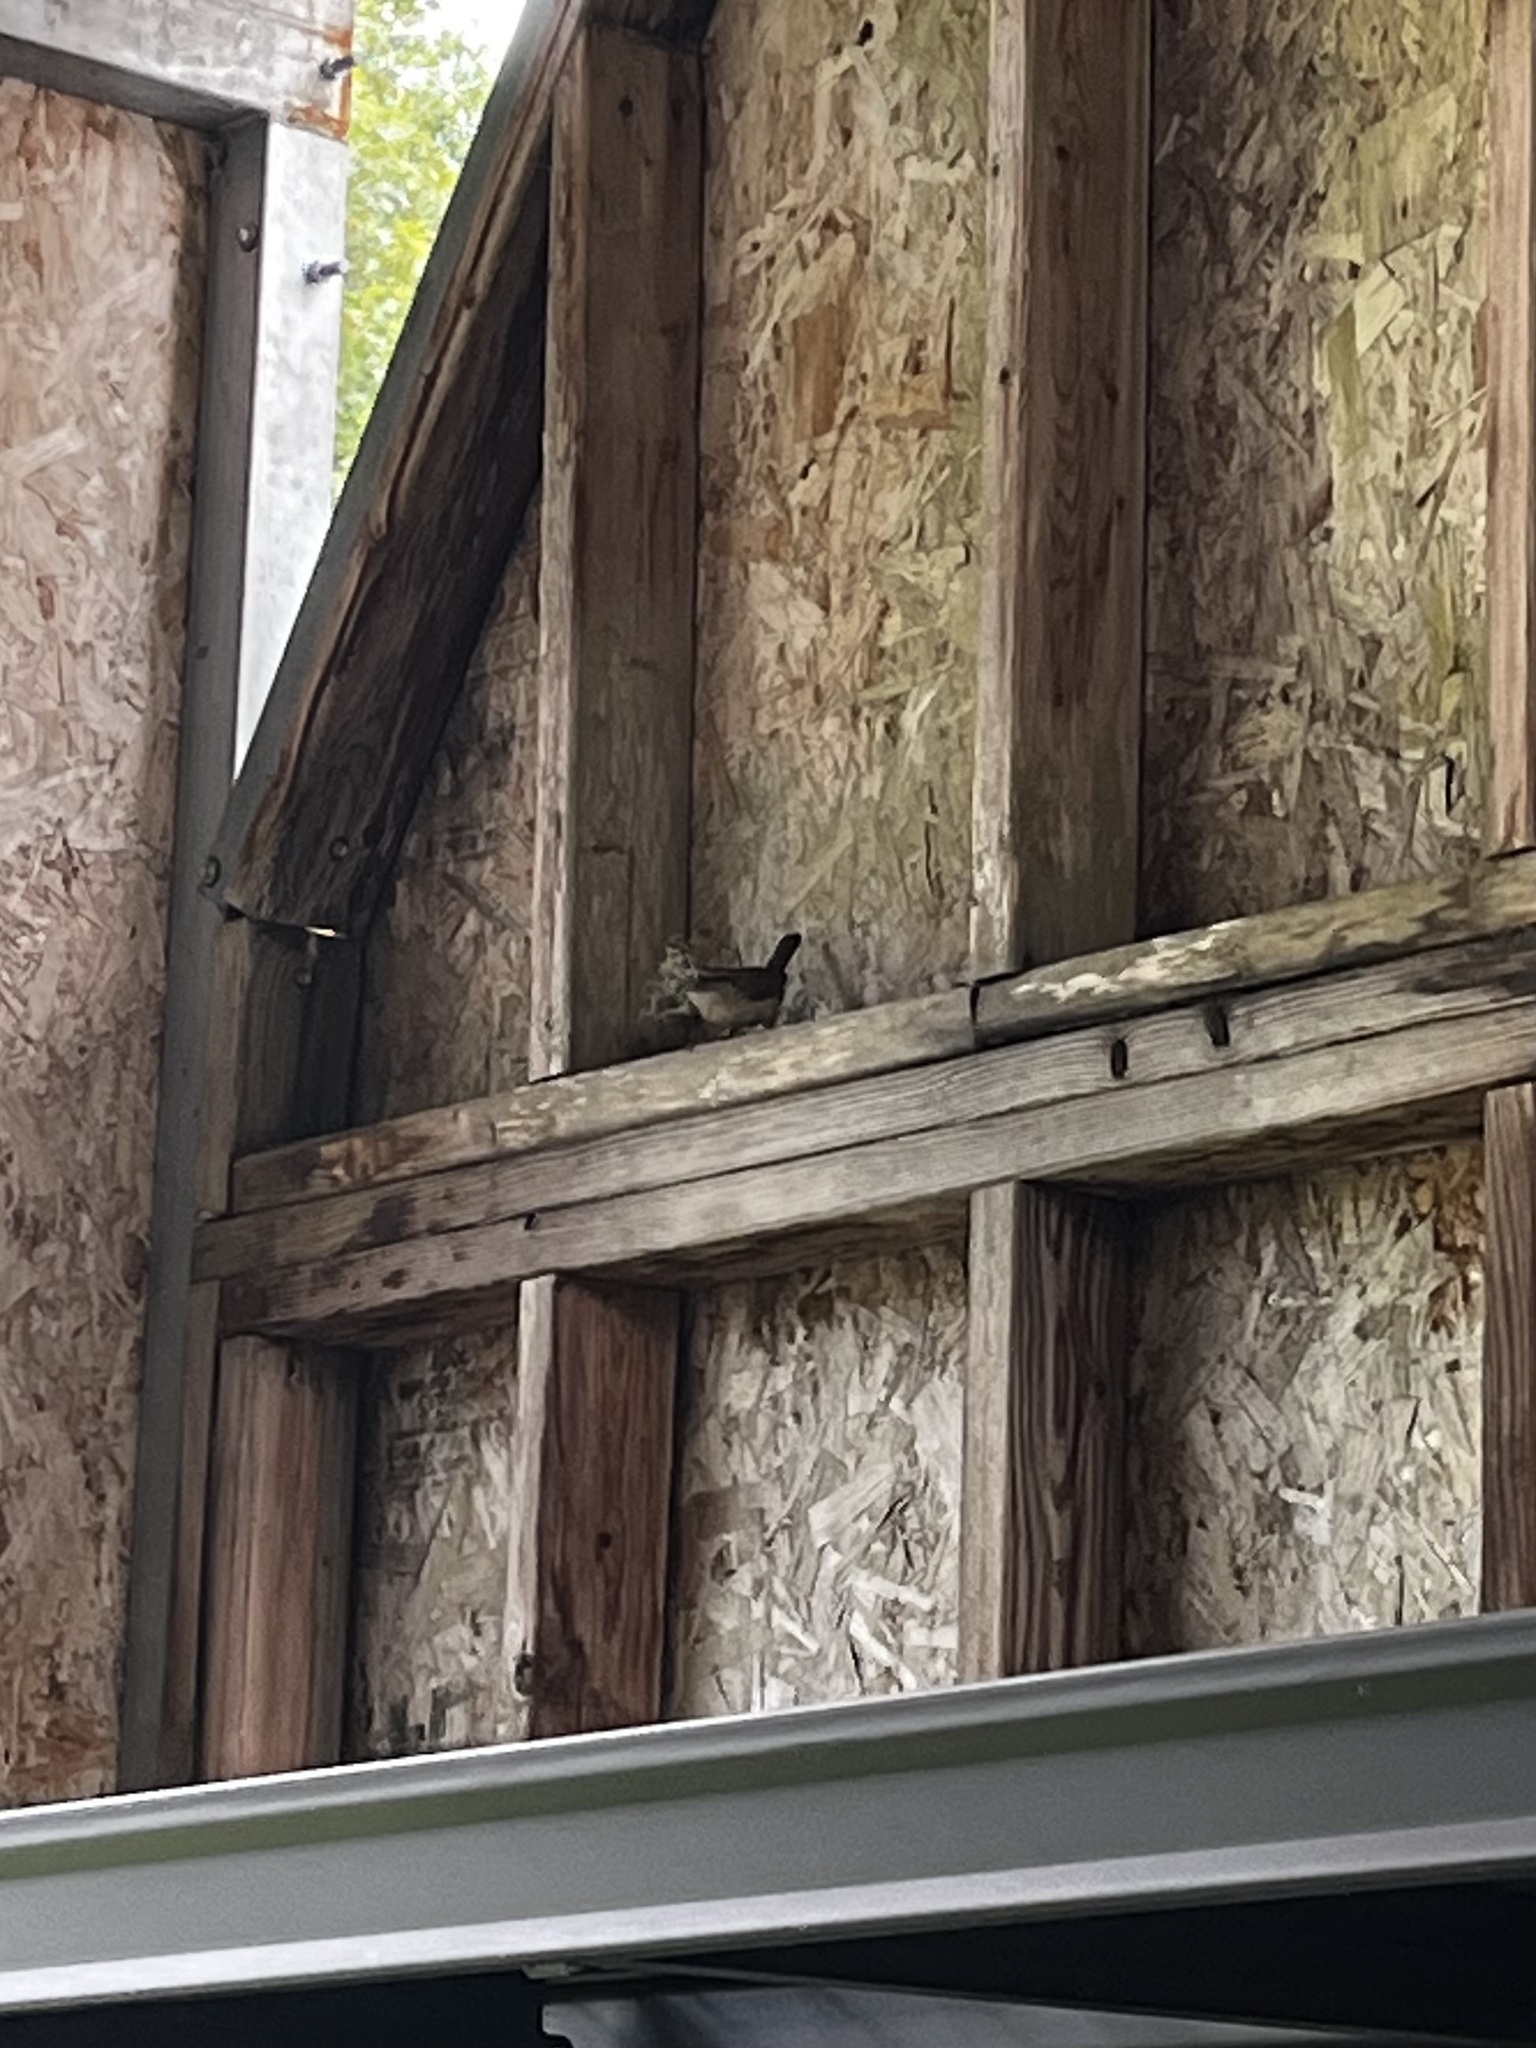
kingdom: Animalia
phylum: Chordata
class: Aves
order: Passeriformes
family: Troglodytidae
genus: Thryothorus
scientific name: Thryothorus ludovicianus
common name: Carolina wren
